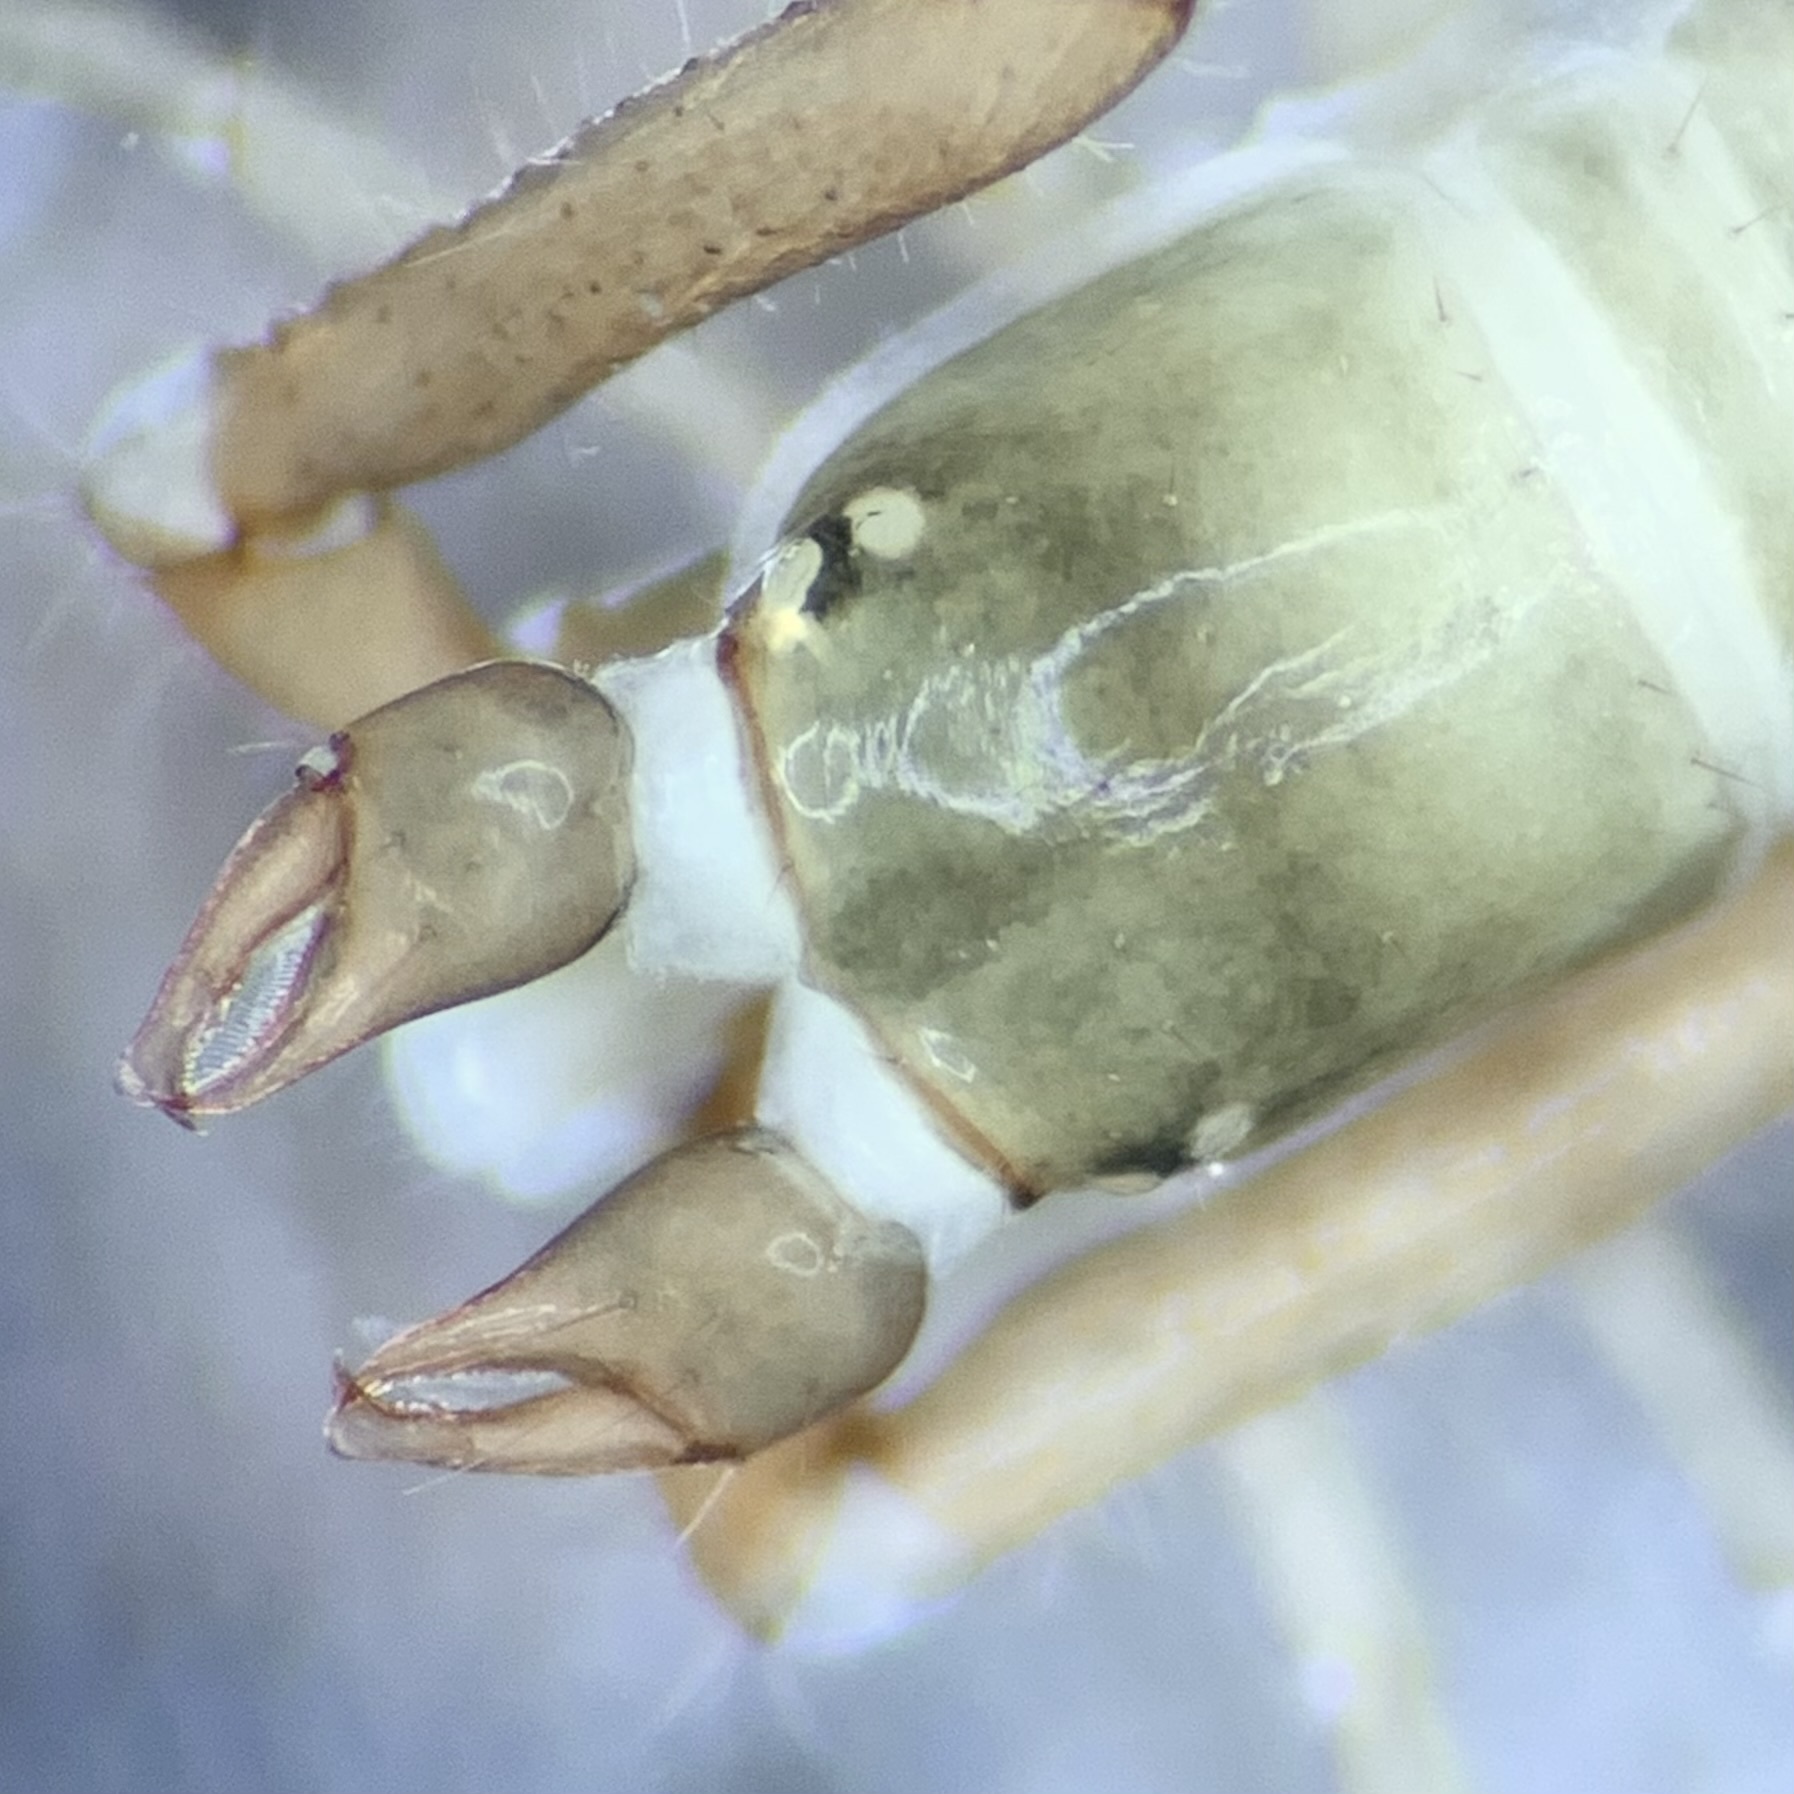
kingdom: Animalia
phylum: Arthropoda
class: Arachnida
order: Pseudoscorpiones
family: Neobisiidae
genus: Neobisium
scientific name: Neobisium carcinoides
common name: Common neobisid
